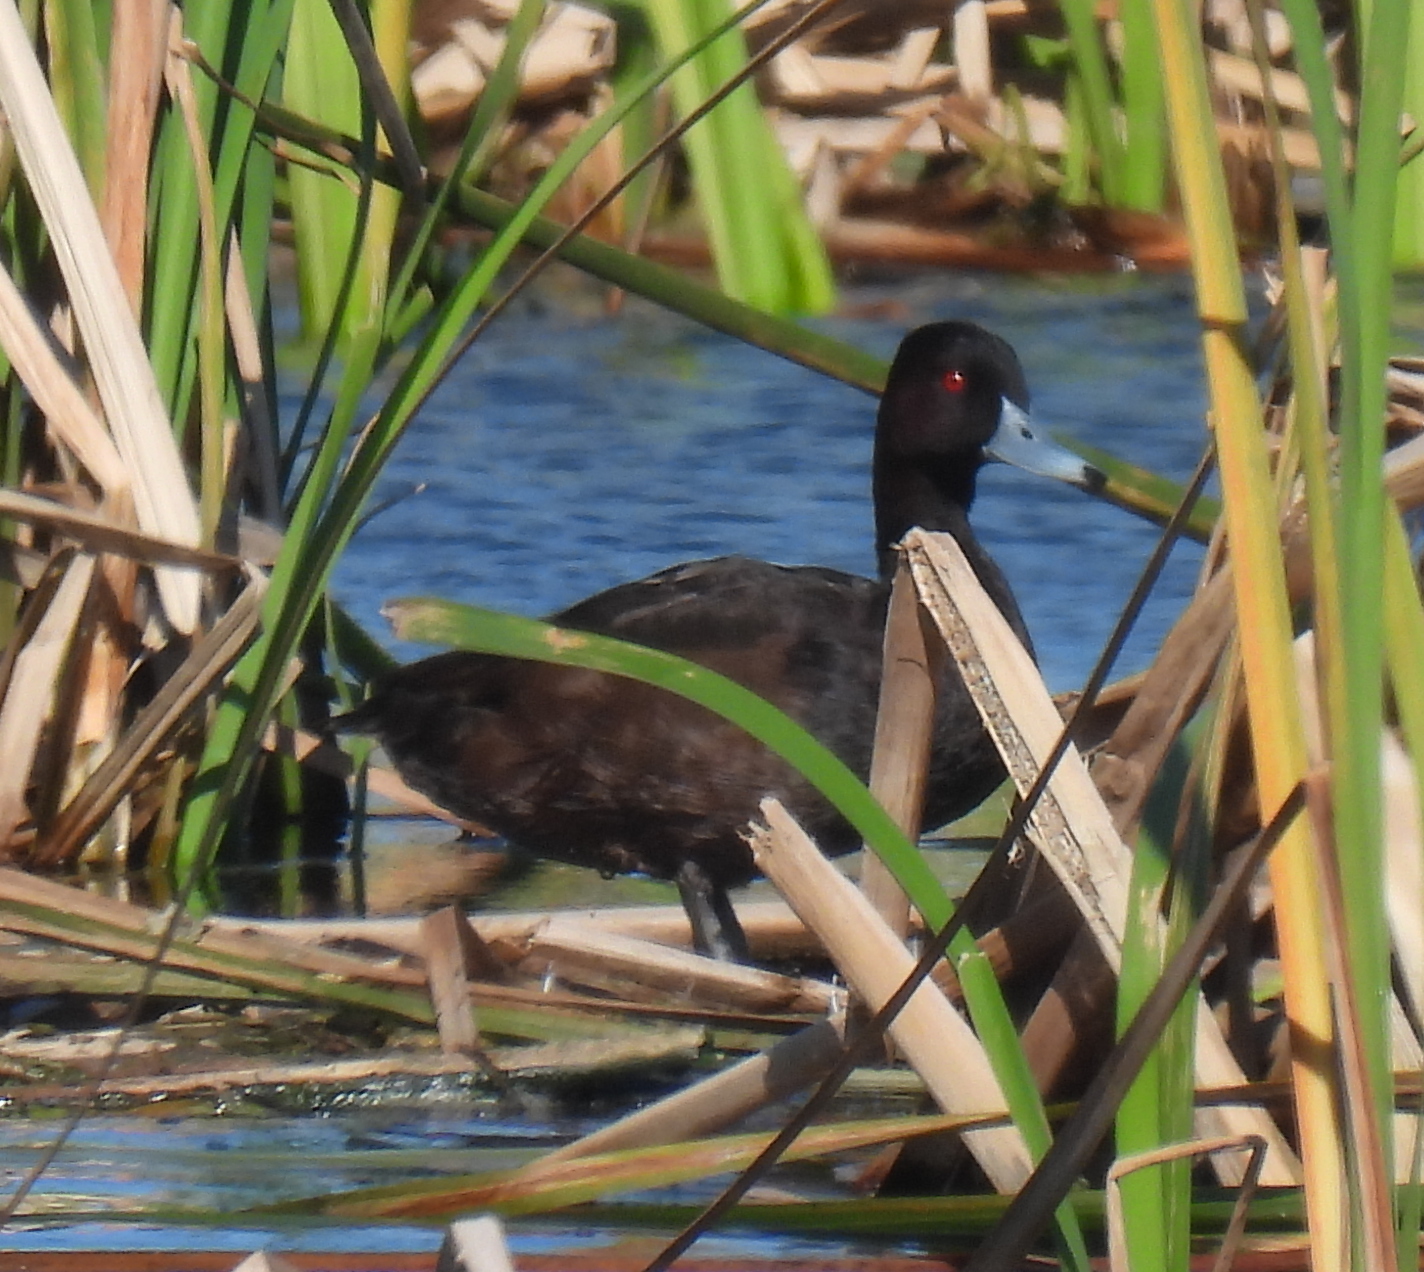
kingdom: Animalia
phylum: Chordata
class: Aves
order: Anseriformes
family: Anatidae
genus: Netta
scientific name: Netta erythrophthalma
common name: Southern pochard
